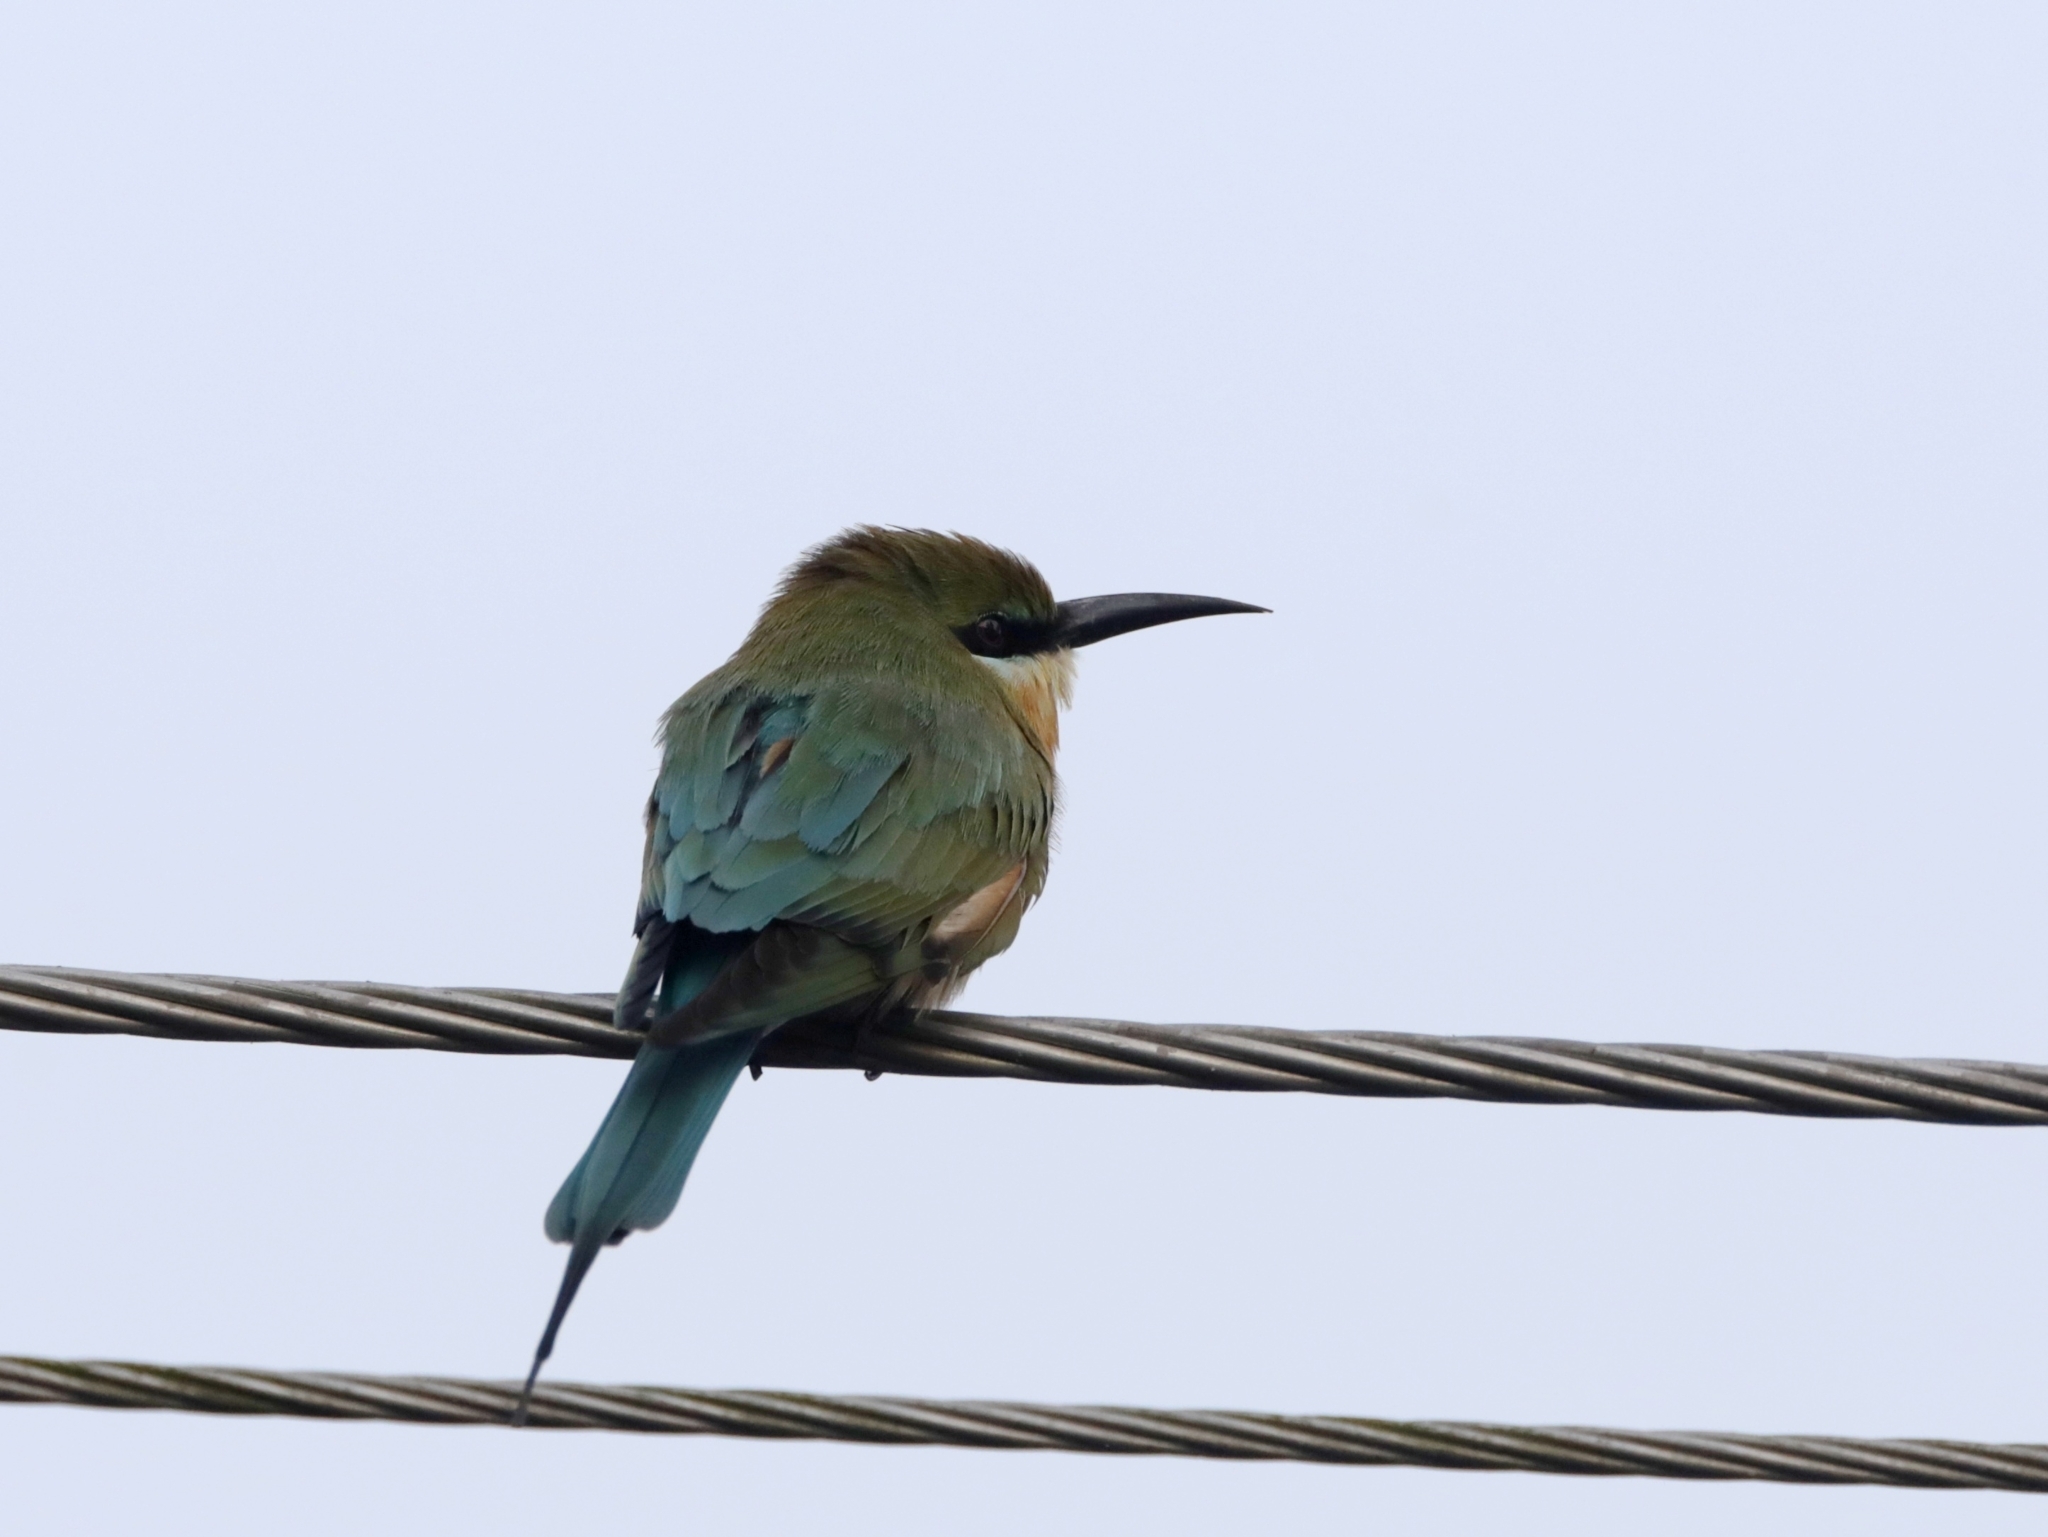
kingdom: Animalia
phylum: Chordata
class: Aves
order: Coraciiformes
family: Meropidae
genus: Merops
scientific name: Merops philippinus
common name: Blue-tailed bee-eater
